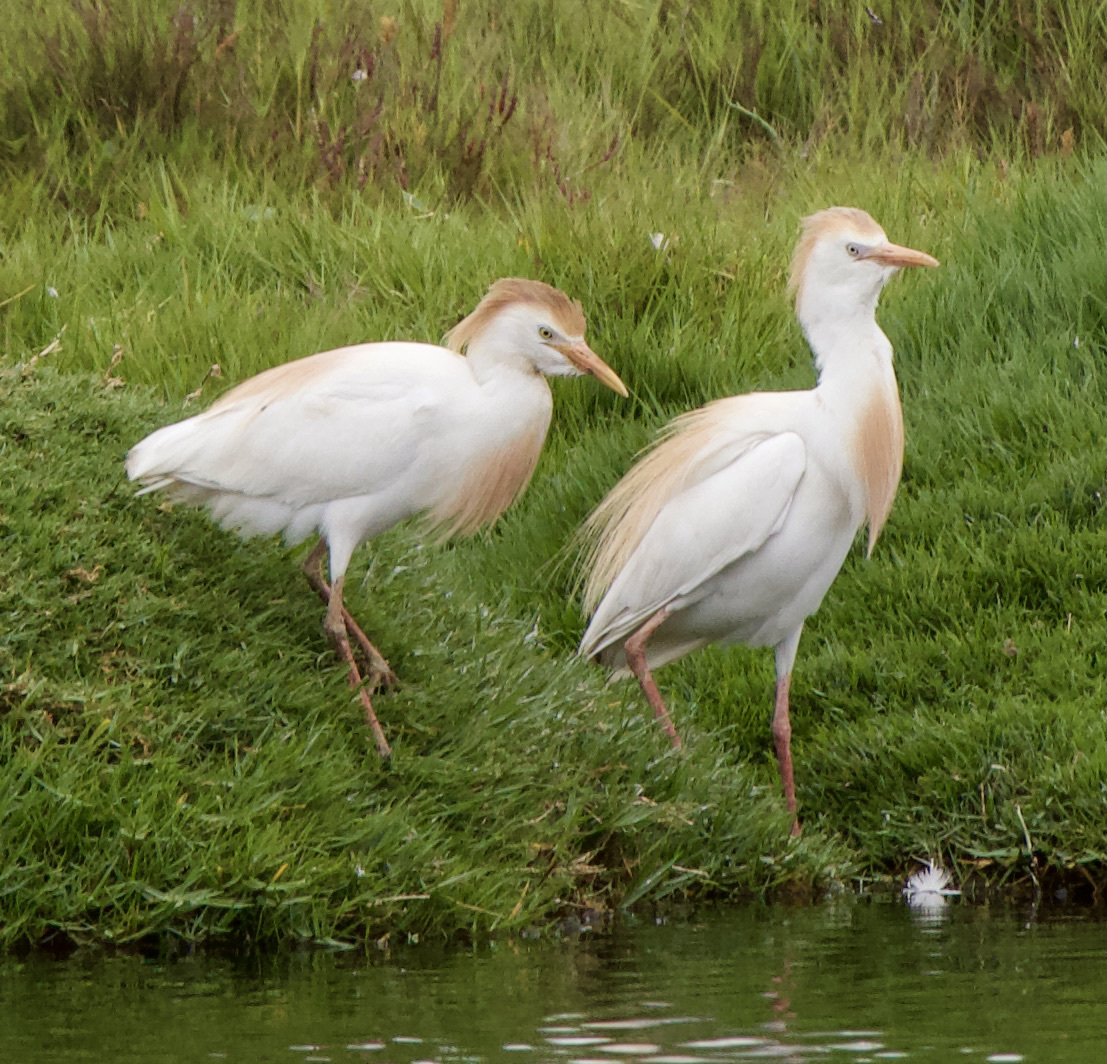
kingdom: Animalia
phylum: Chordata
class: Aves
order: Pelecaniformes
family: Ardeidae
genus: Bubulcus
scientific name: Bubulcus ibis
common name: Cattle egret
